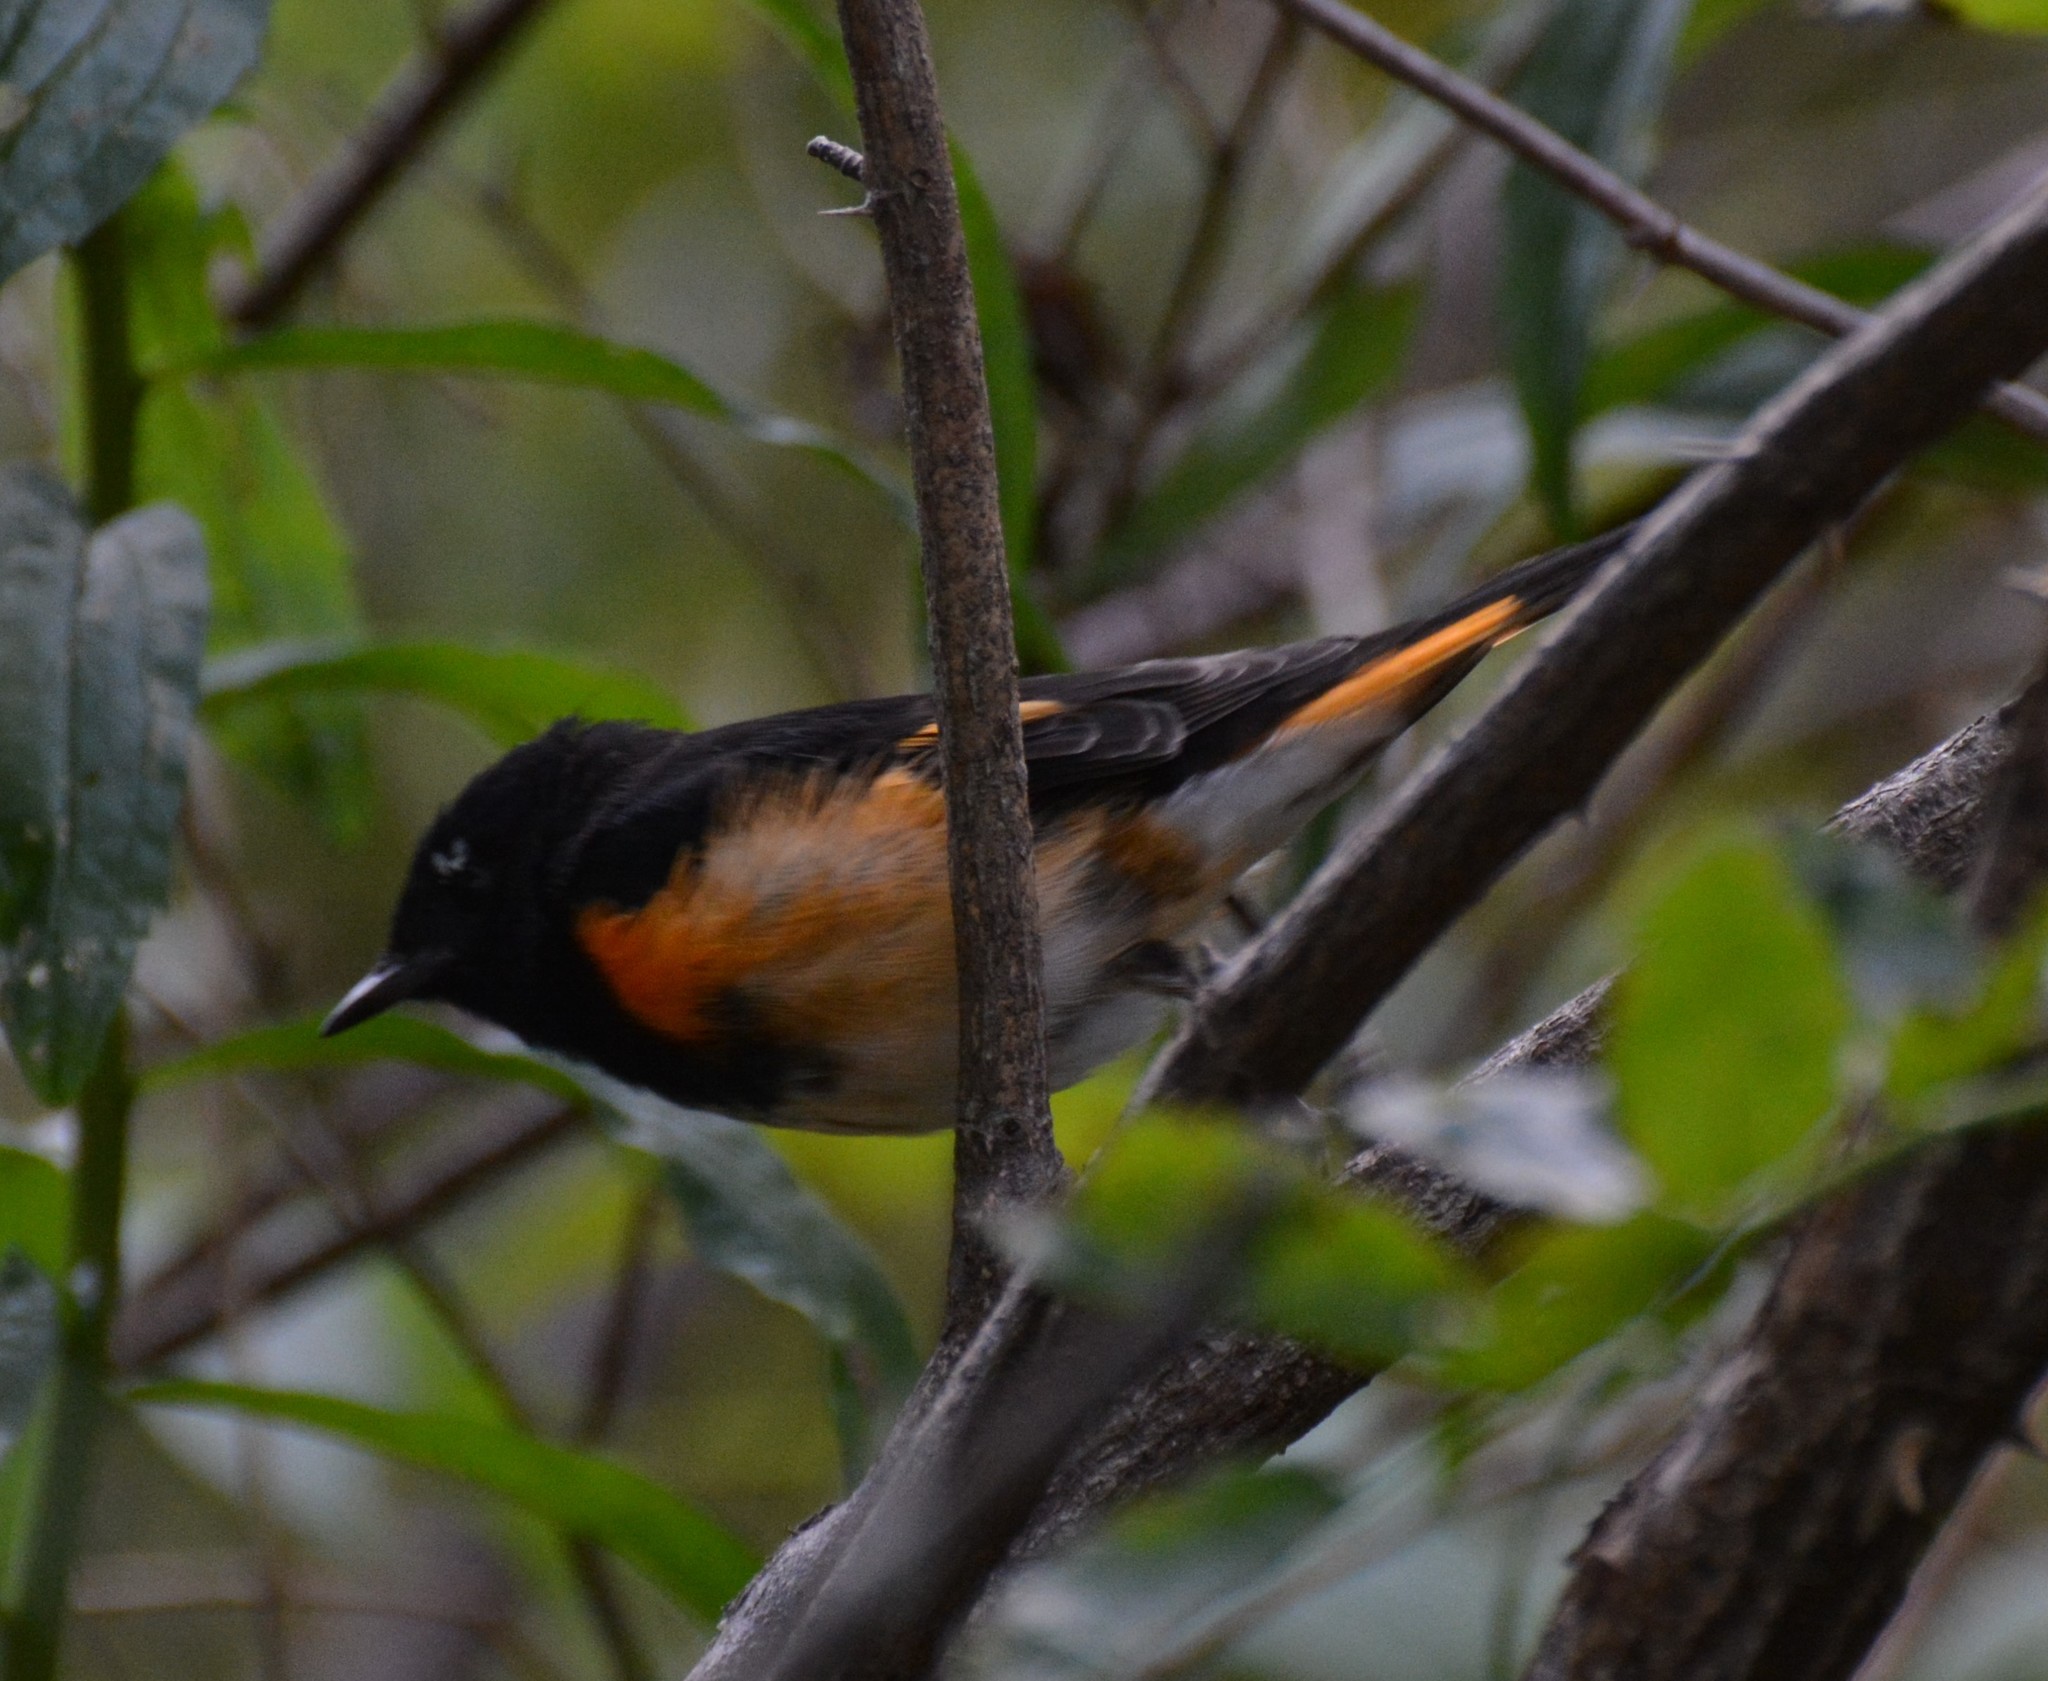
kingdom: Animalia
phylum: Chordata
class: Aves
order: Passeriformes
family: Parulidae
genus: Setophaga
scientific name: Setophaga ruticilla
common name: American redstart
